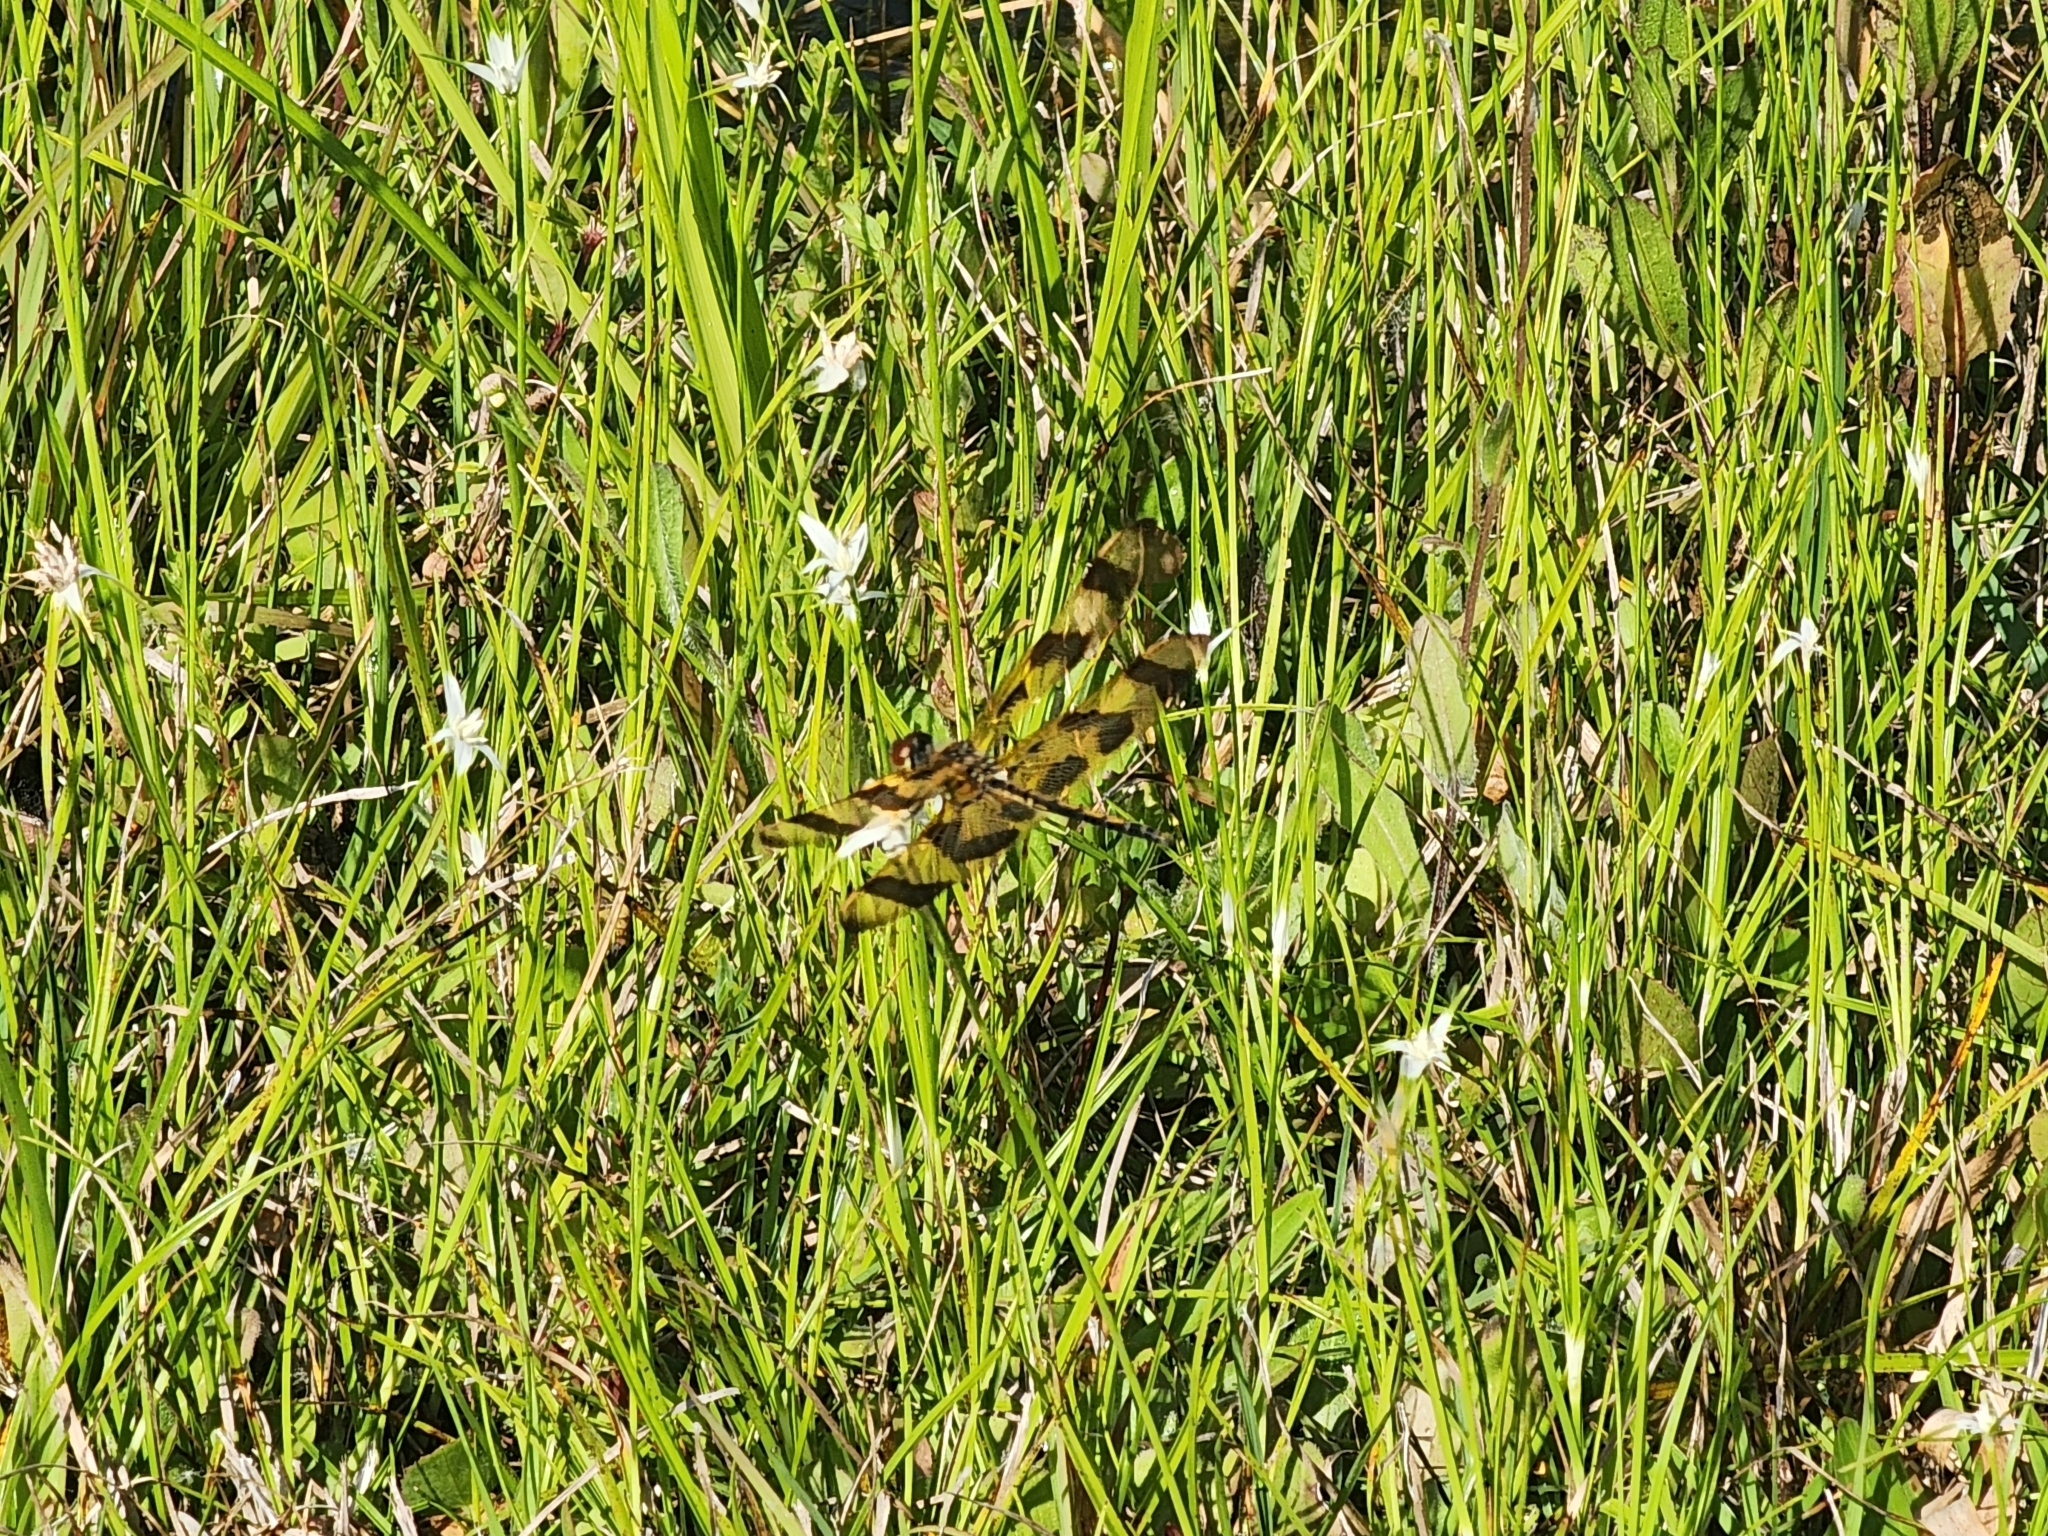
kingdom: Animalia
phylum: Arthropoda
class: Insecta
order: Odonata
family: Libellulidae
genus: Celithemis
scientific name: Celithemis eponina
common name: Halloween pennant
